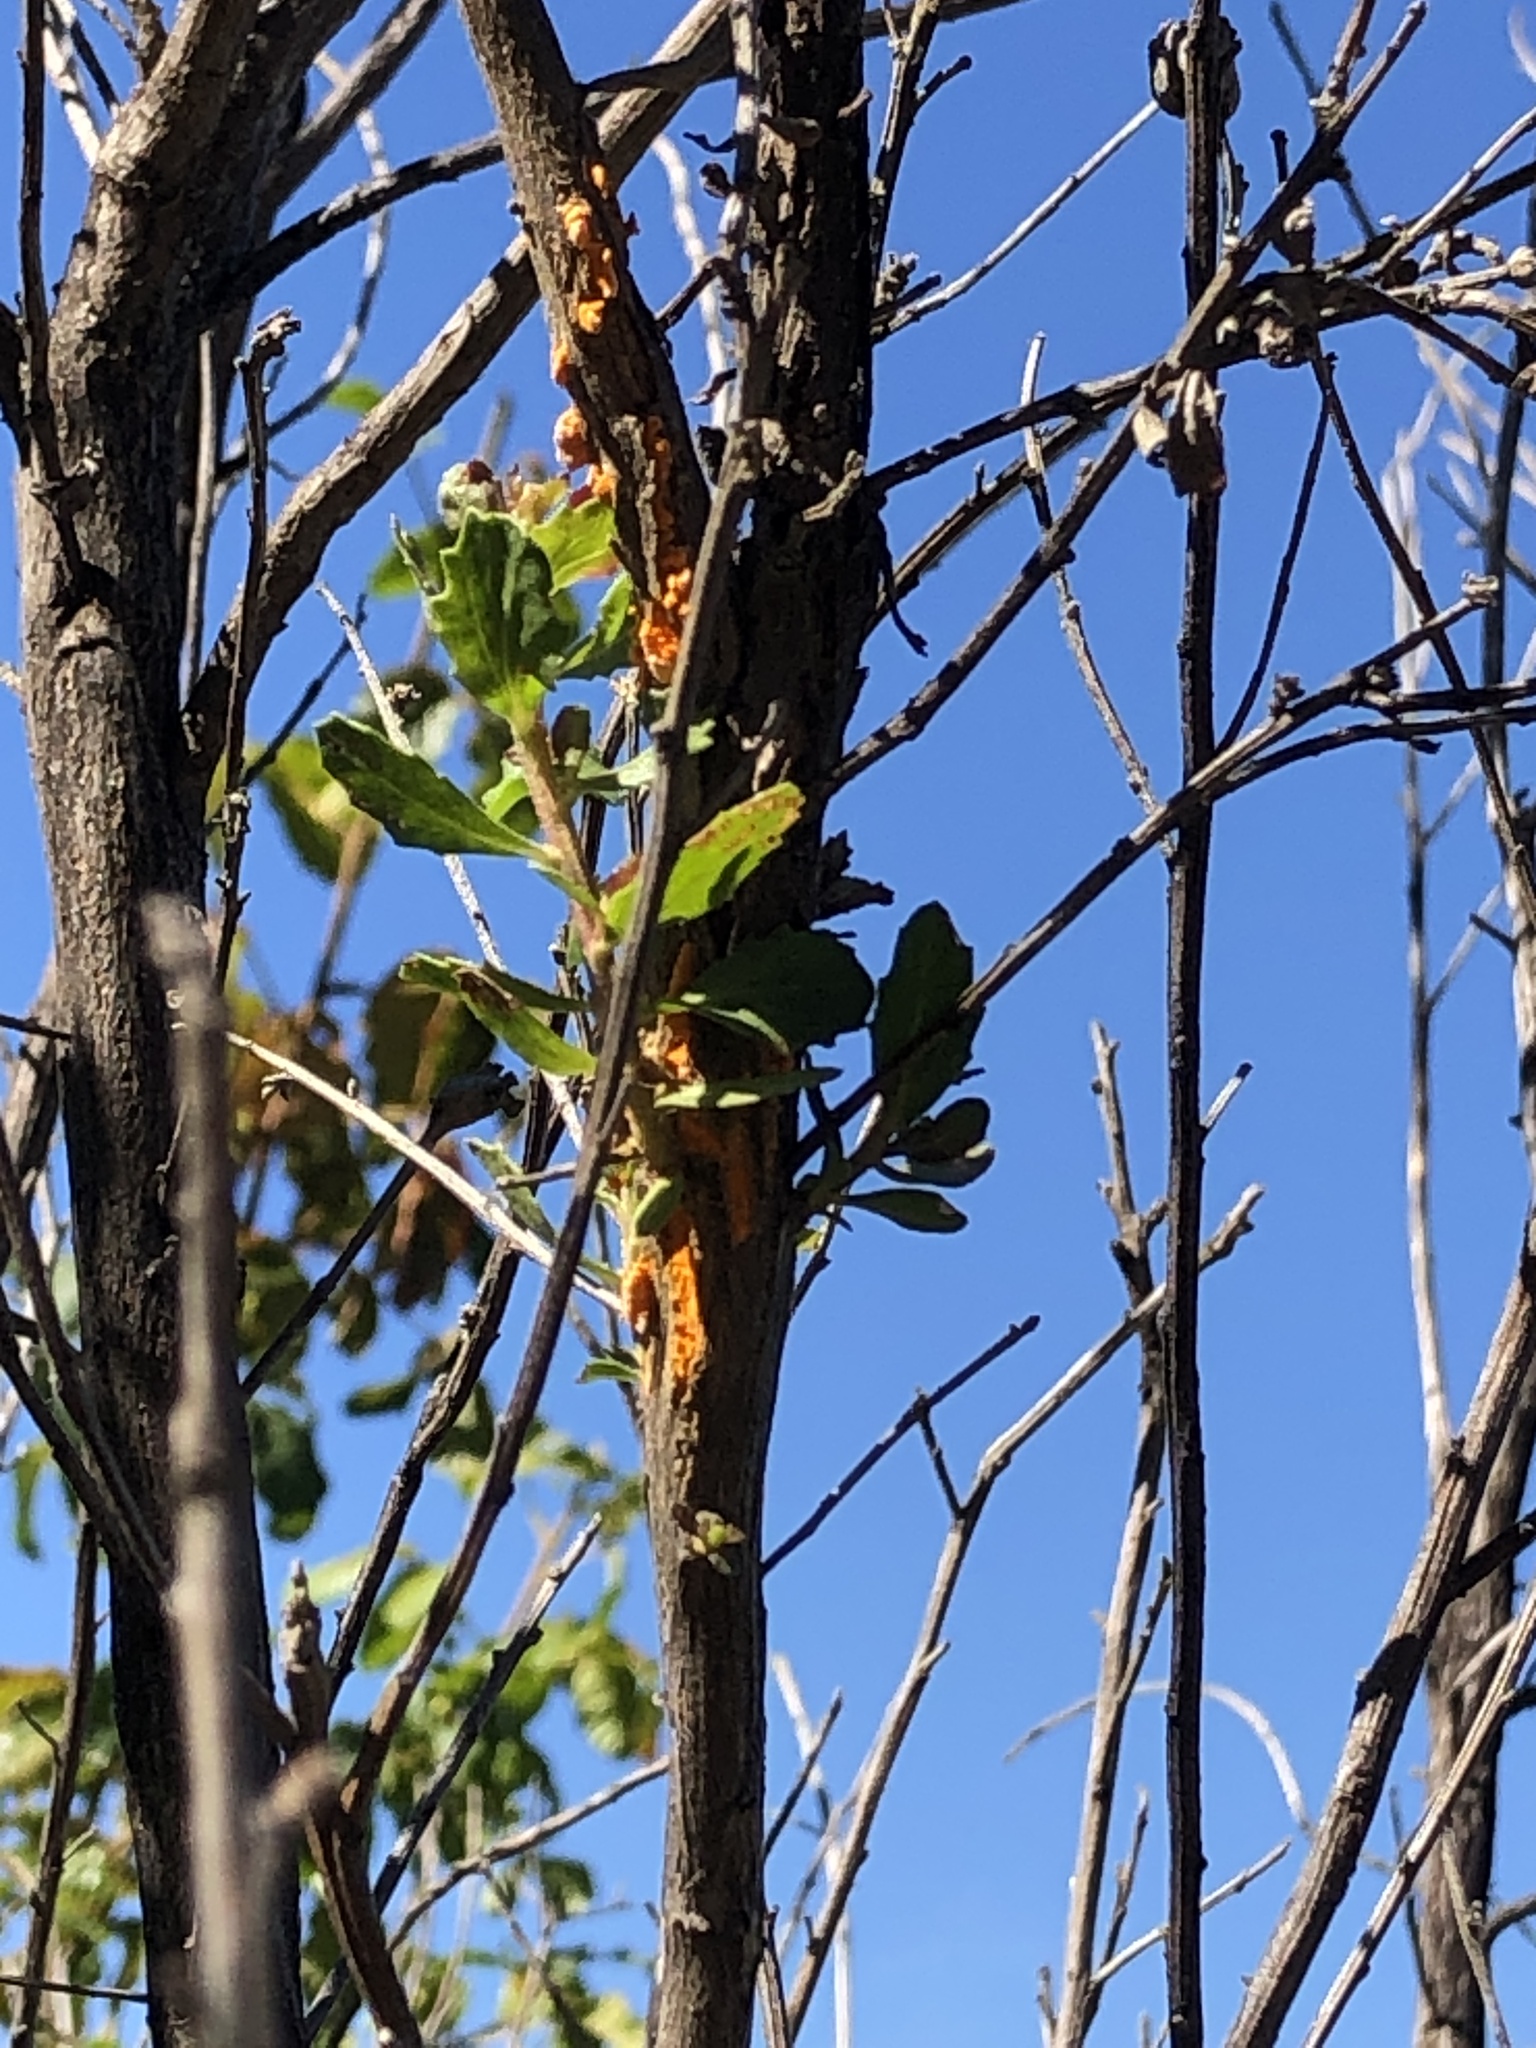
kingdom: Fungi
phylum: Basidiomycota
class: Pucciniomycetes
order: Pucciniales
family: Pucciniaceae
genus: Eriosporangium
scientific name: Eriosporangium evadens
